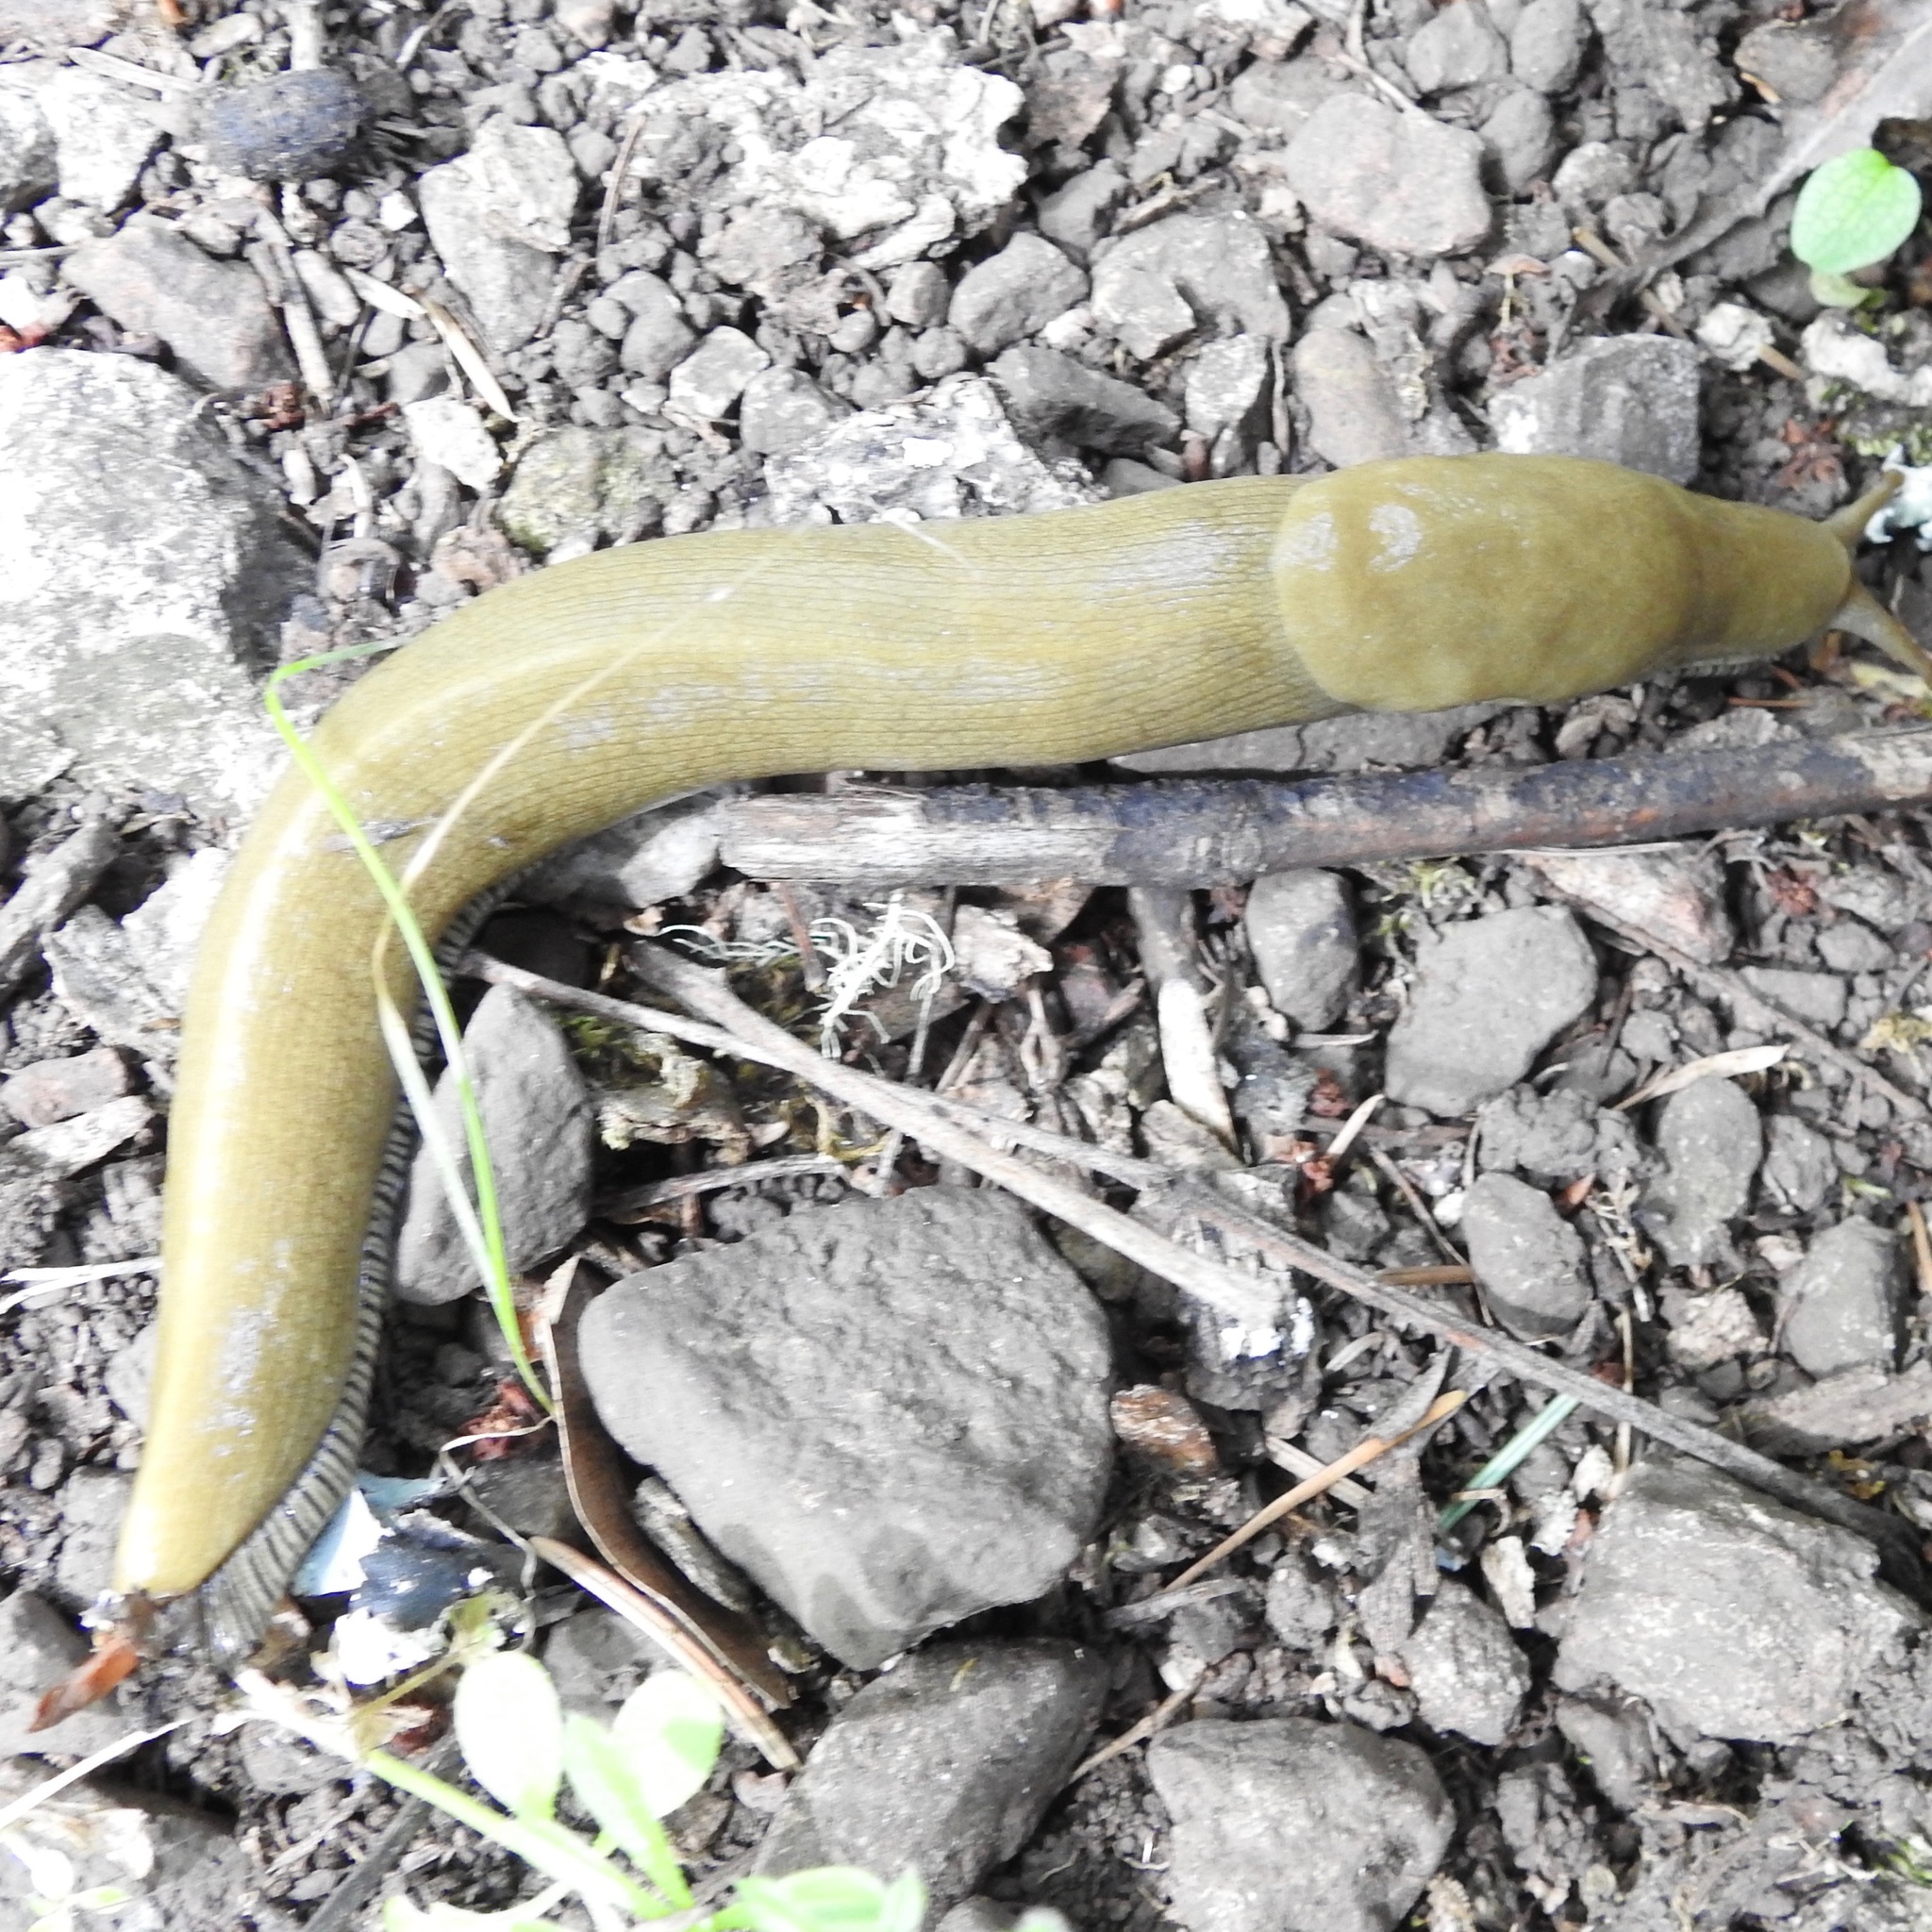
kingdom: Animalia
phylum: Mollusca
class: Gastropoda
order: Stylommatophora
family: Ariolimacidae
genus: Ariolimax
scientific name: Ariolimax buttoni
